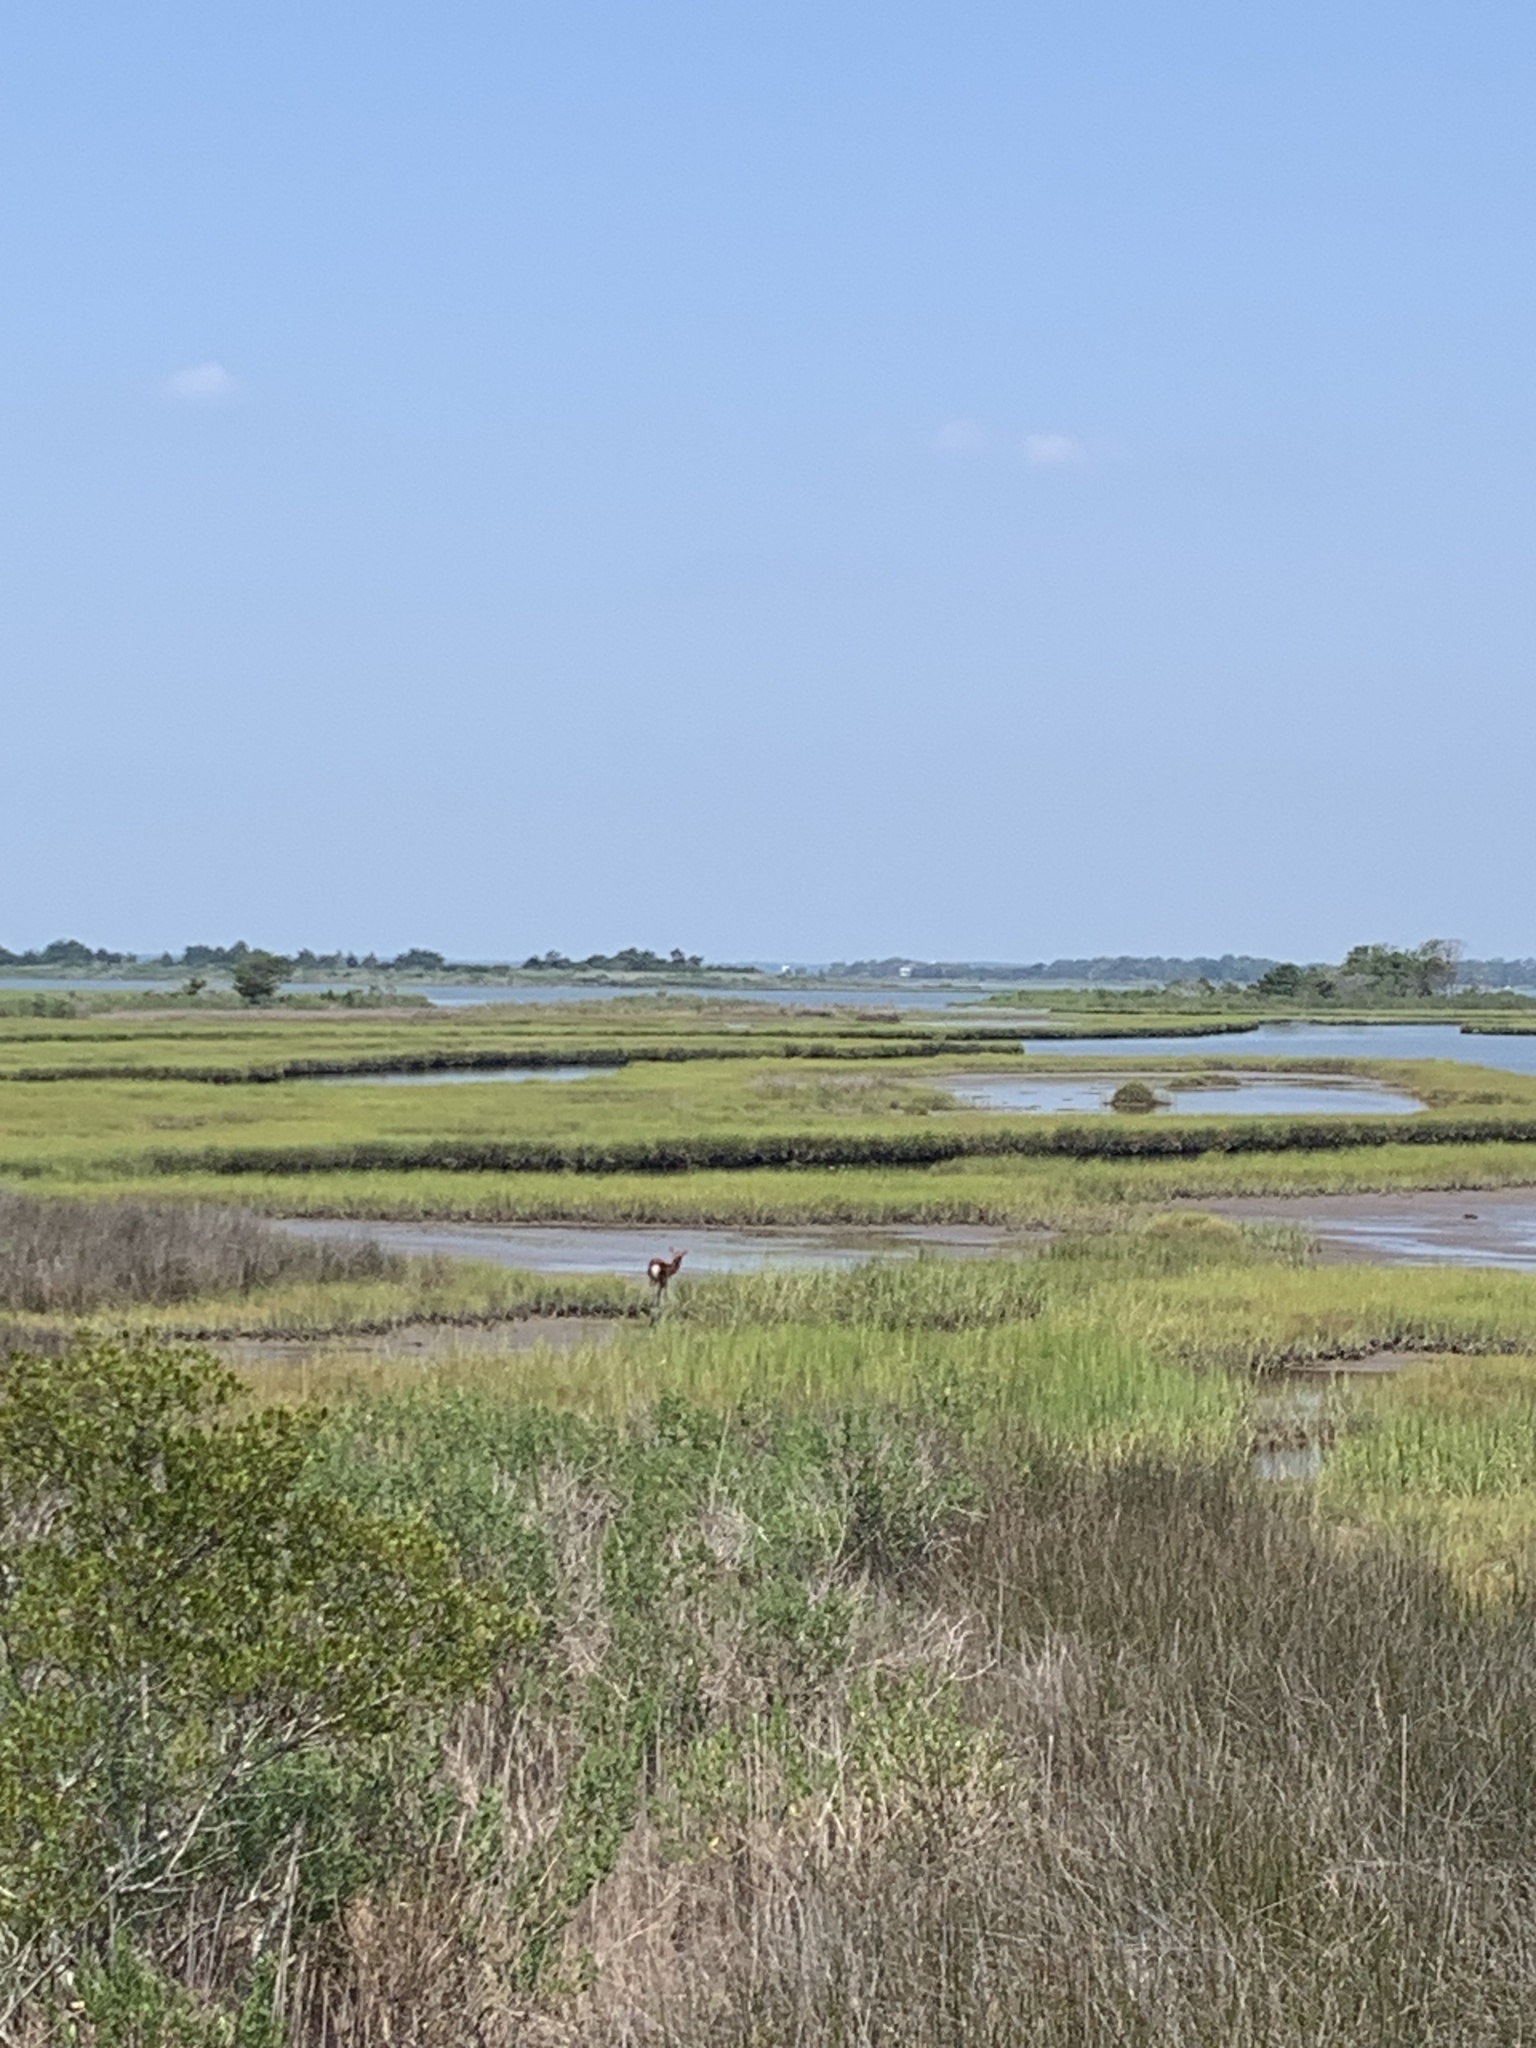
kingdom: Animalia
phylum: Chordata
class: Mammalia
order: Artiodactyla
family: Cervidae
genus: Odocoileus
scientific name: Odocoileus virginianus
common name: White-tailed deer
